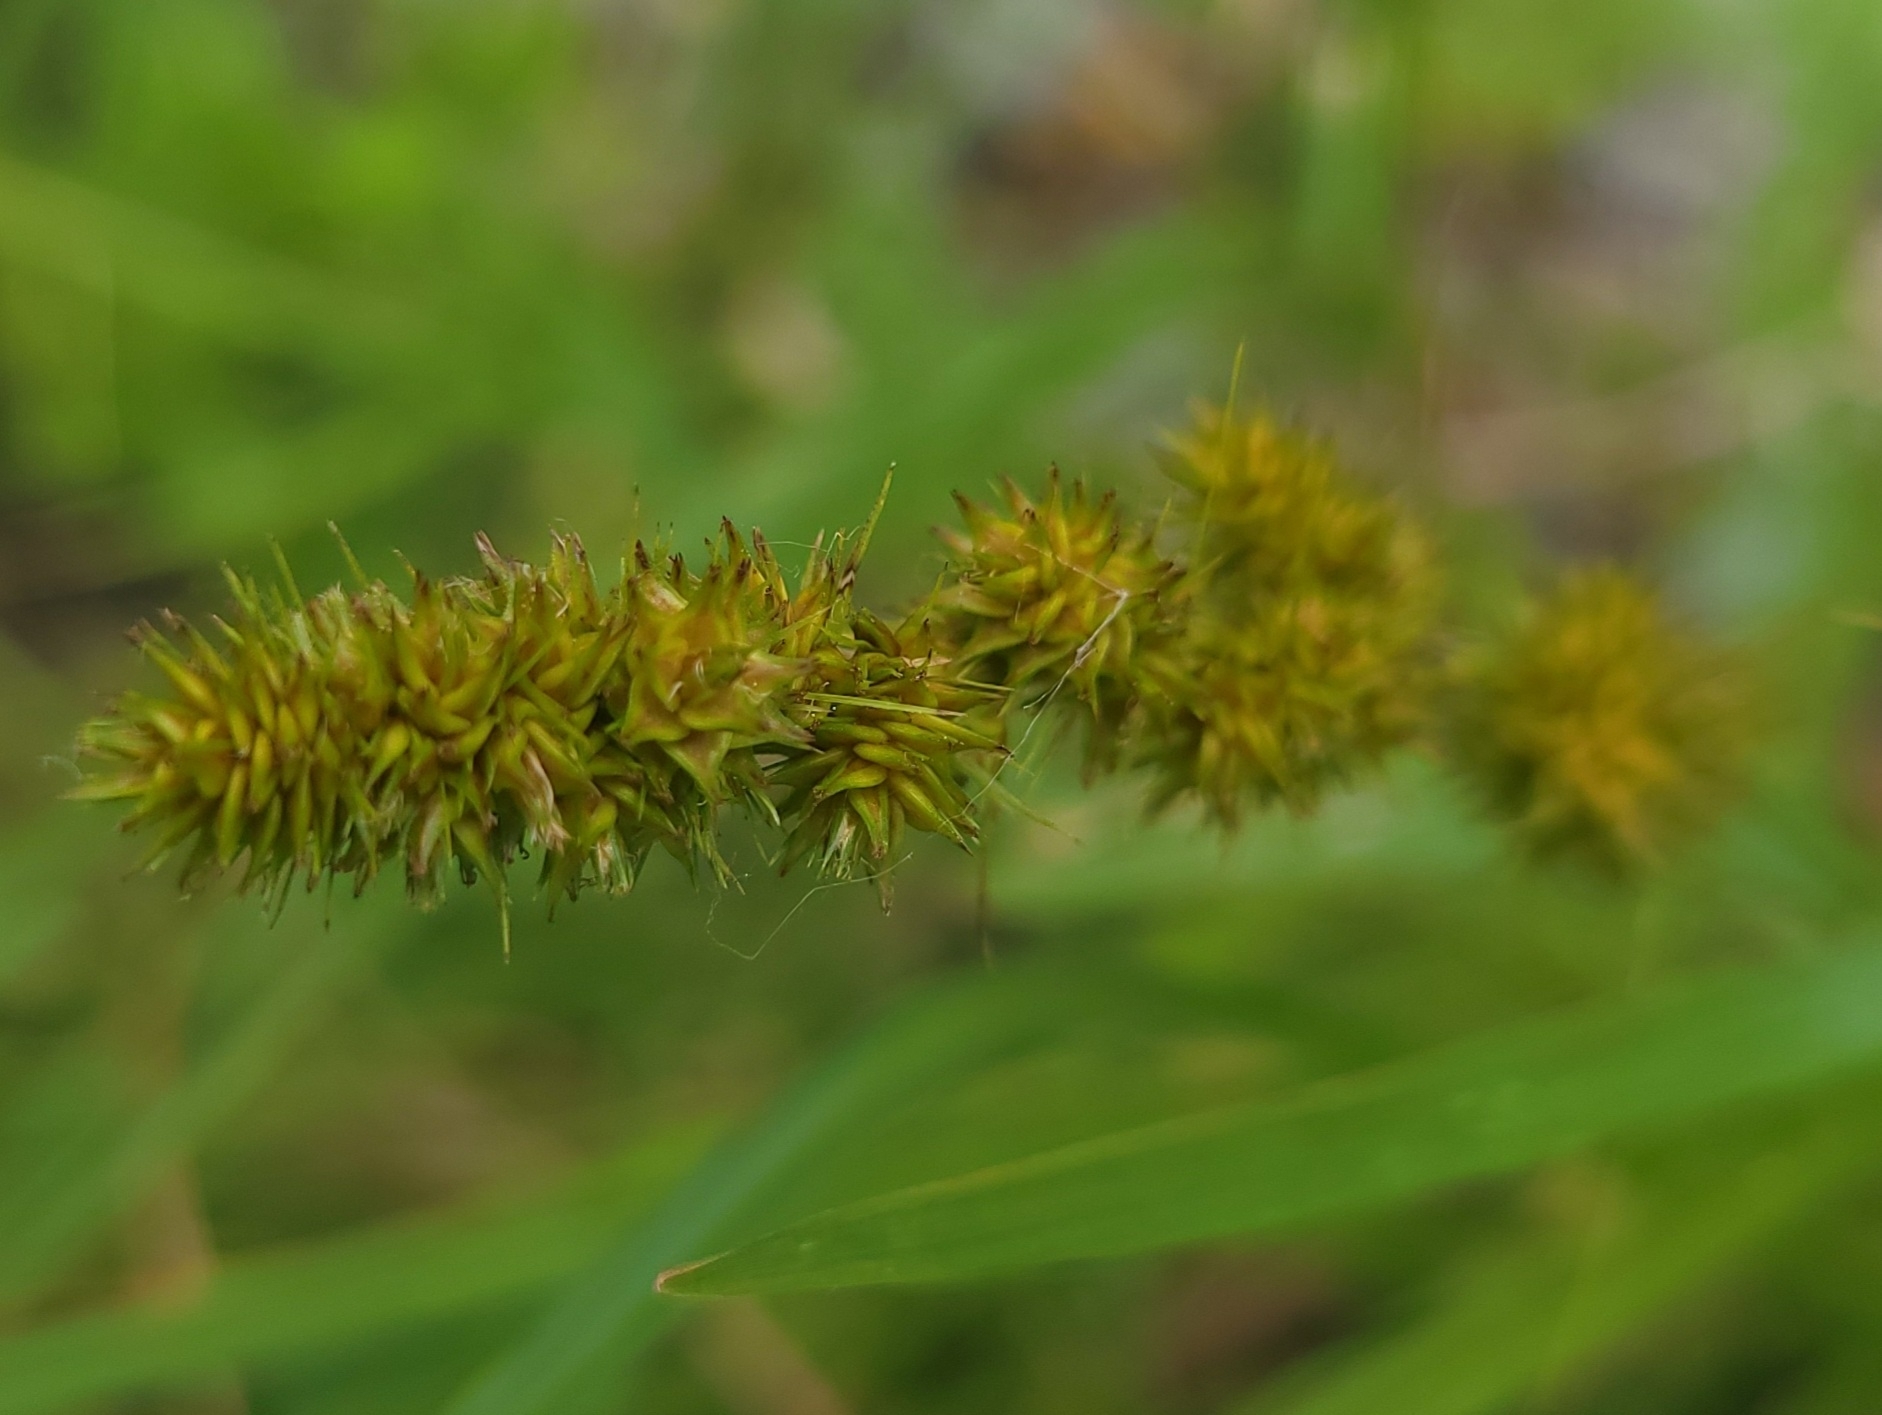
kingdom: Plantae
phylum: Tracheophyta
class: Liliopsida
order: Poales
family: Cyperaceae
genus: Carex
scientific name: Carex vulpinoidea
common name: American fox-sedge
